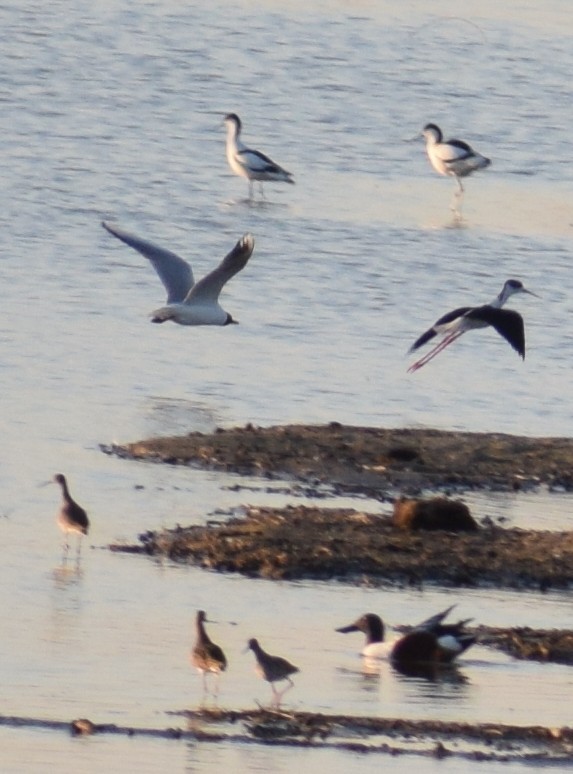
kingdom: Animalia
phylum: Chordata
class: Aves
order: Charadriiformes
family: Recurvirostridae
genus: Himantopus
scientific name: Himantopus himantopus
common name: Black-winged stilt
